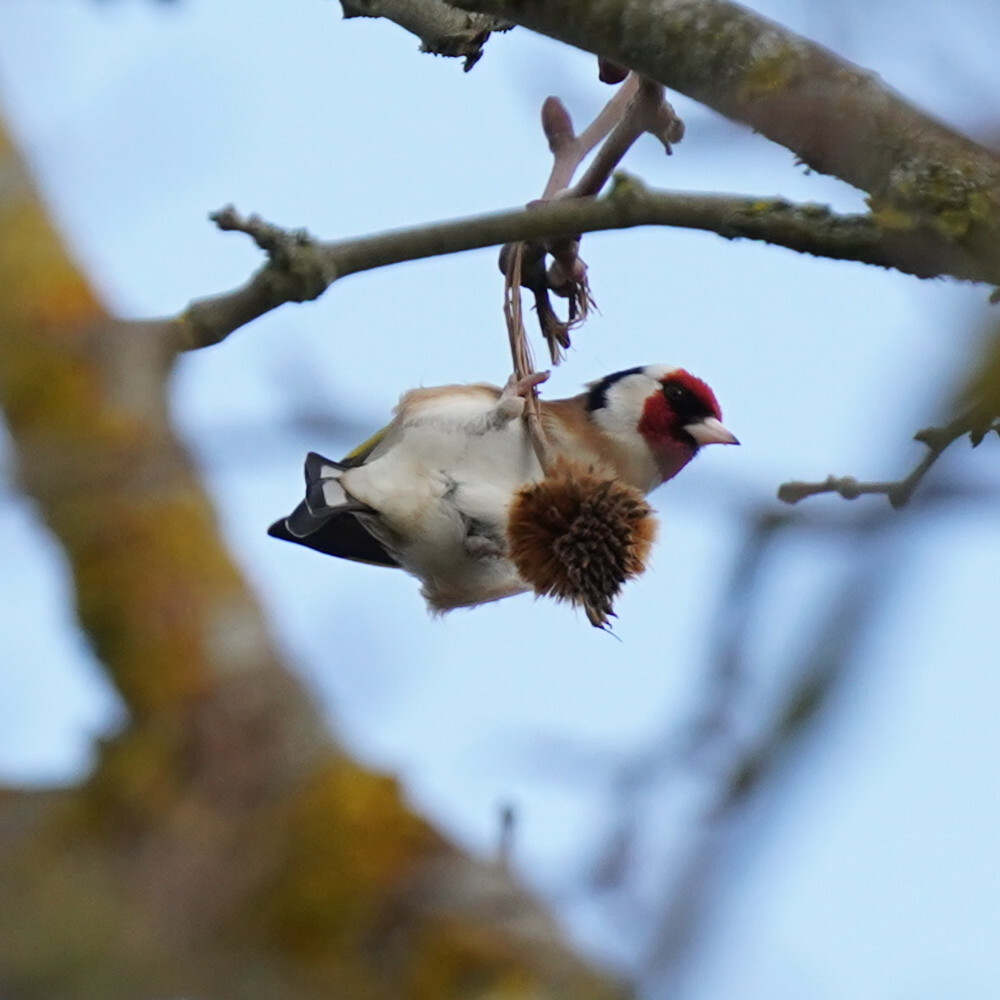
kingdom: Animalia
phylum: Chordata
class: Aves
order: Passeriformes
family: Fringillidae
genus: Carduelis
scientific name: Carduelis carduelis
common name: European goldfinch
